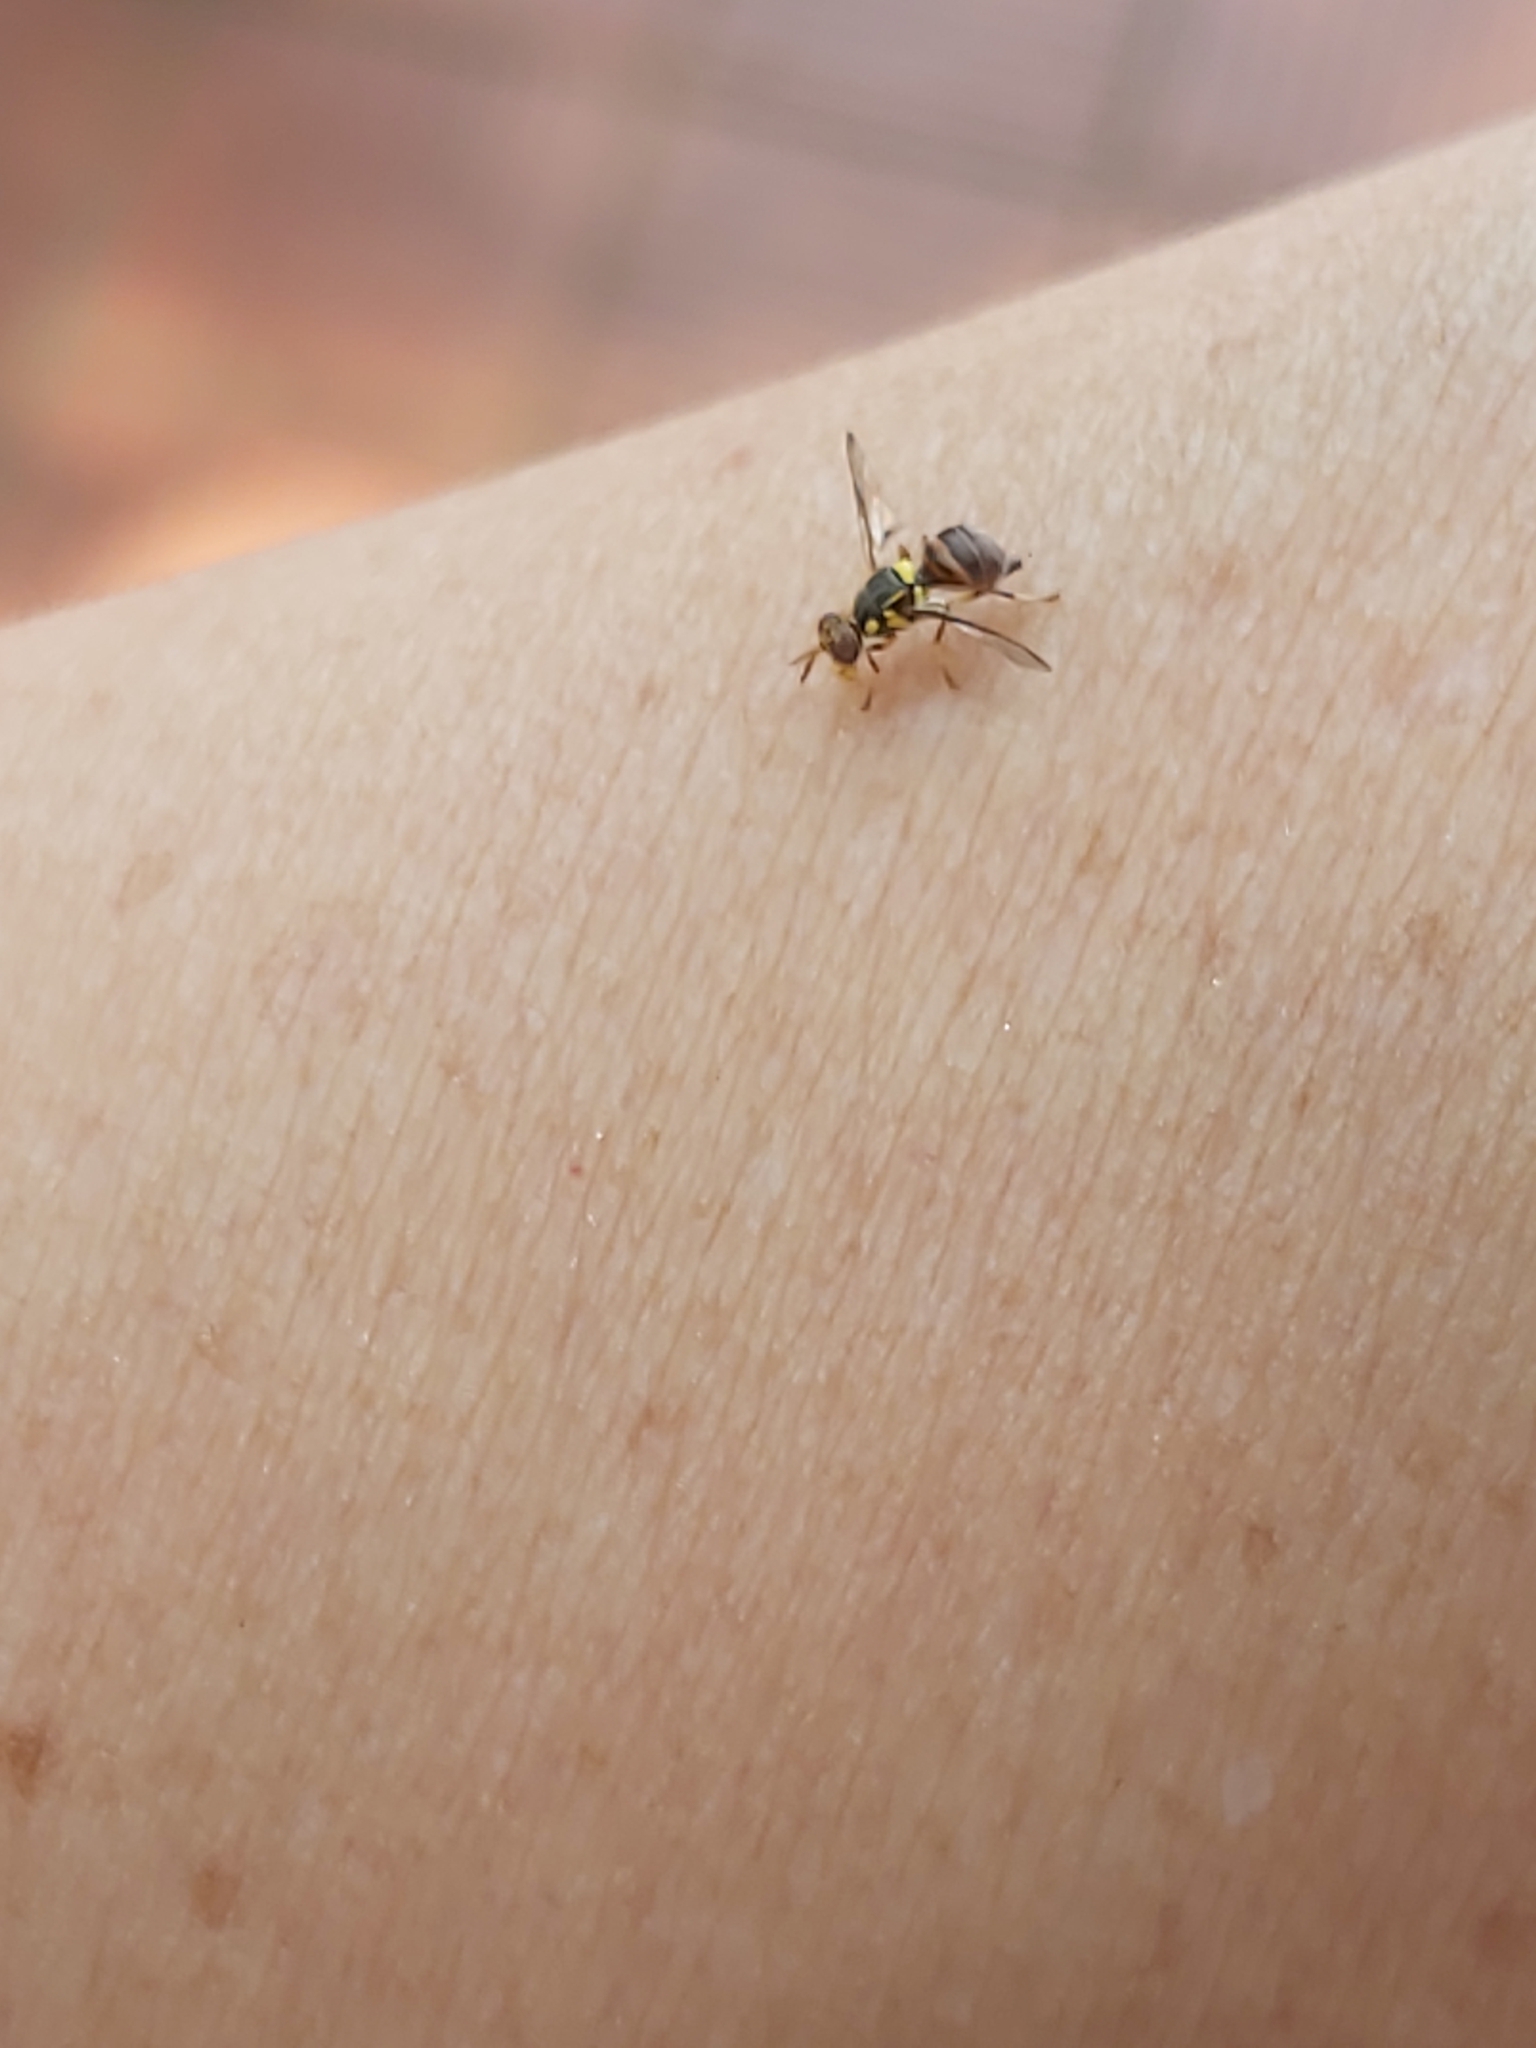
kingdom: Animalia
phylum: Arthropoda
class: Insecta
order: Diptera
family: Tephritidae
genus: Bactrocera
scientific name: Bactrocera dorsalis
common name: Oriental fruit fly
